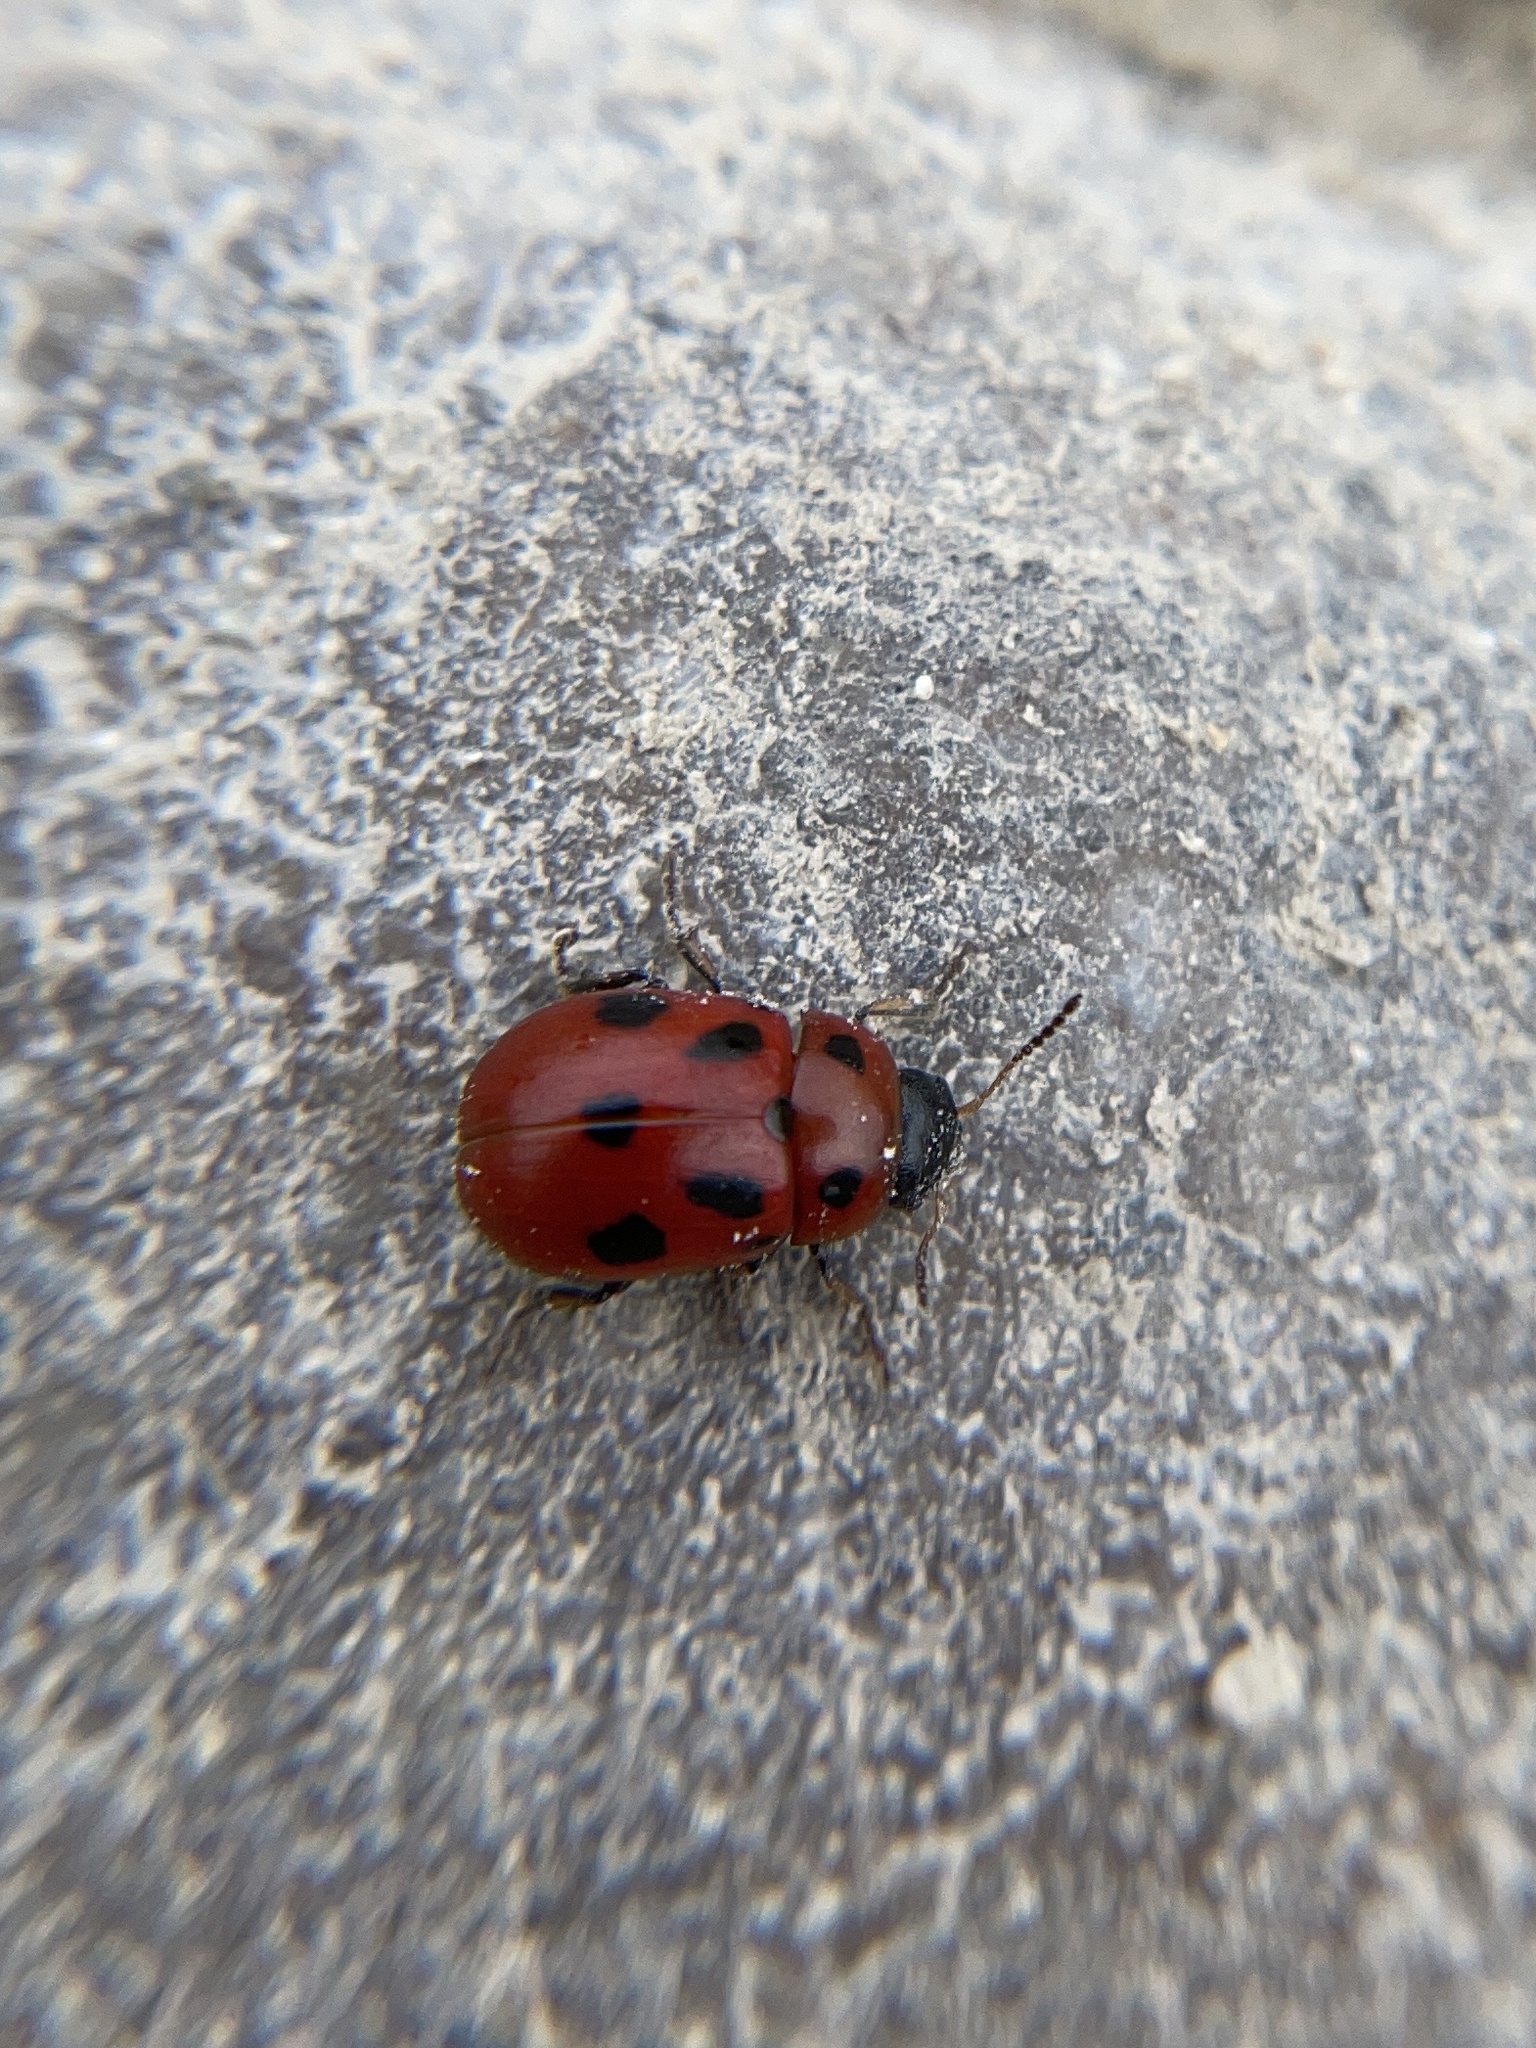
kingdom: Animalia
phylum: Arthropoda
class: Insecta
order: Coleoptera
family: Chrysomelidae
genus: Gonioctena
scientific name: Gonioctena fornicata
